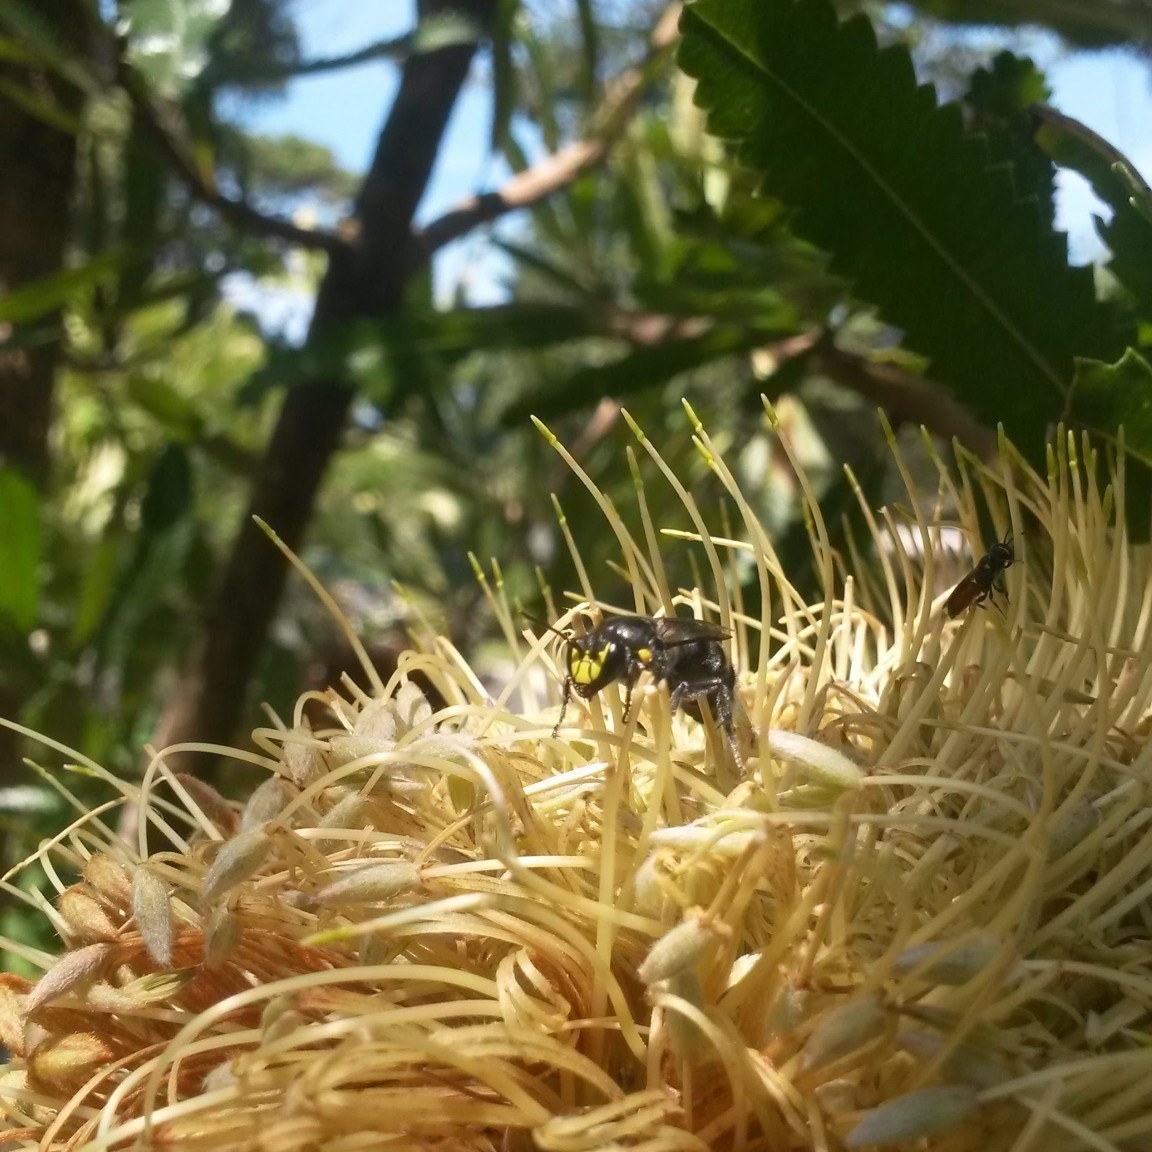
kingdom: Animalia
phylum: Arthropoda
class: Insecta
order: Hymenoptera
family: Colletidae
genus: Hylaeus
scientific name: Hylaeus alcyoneus
